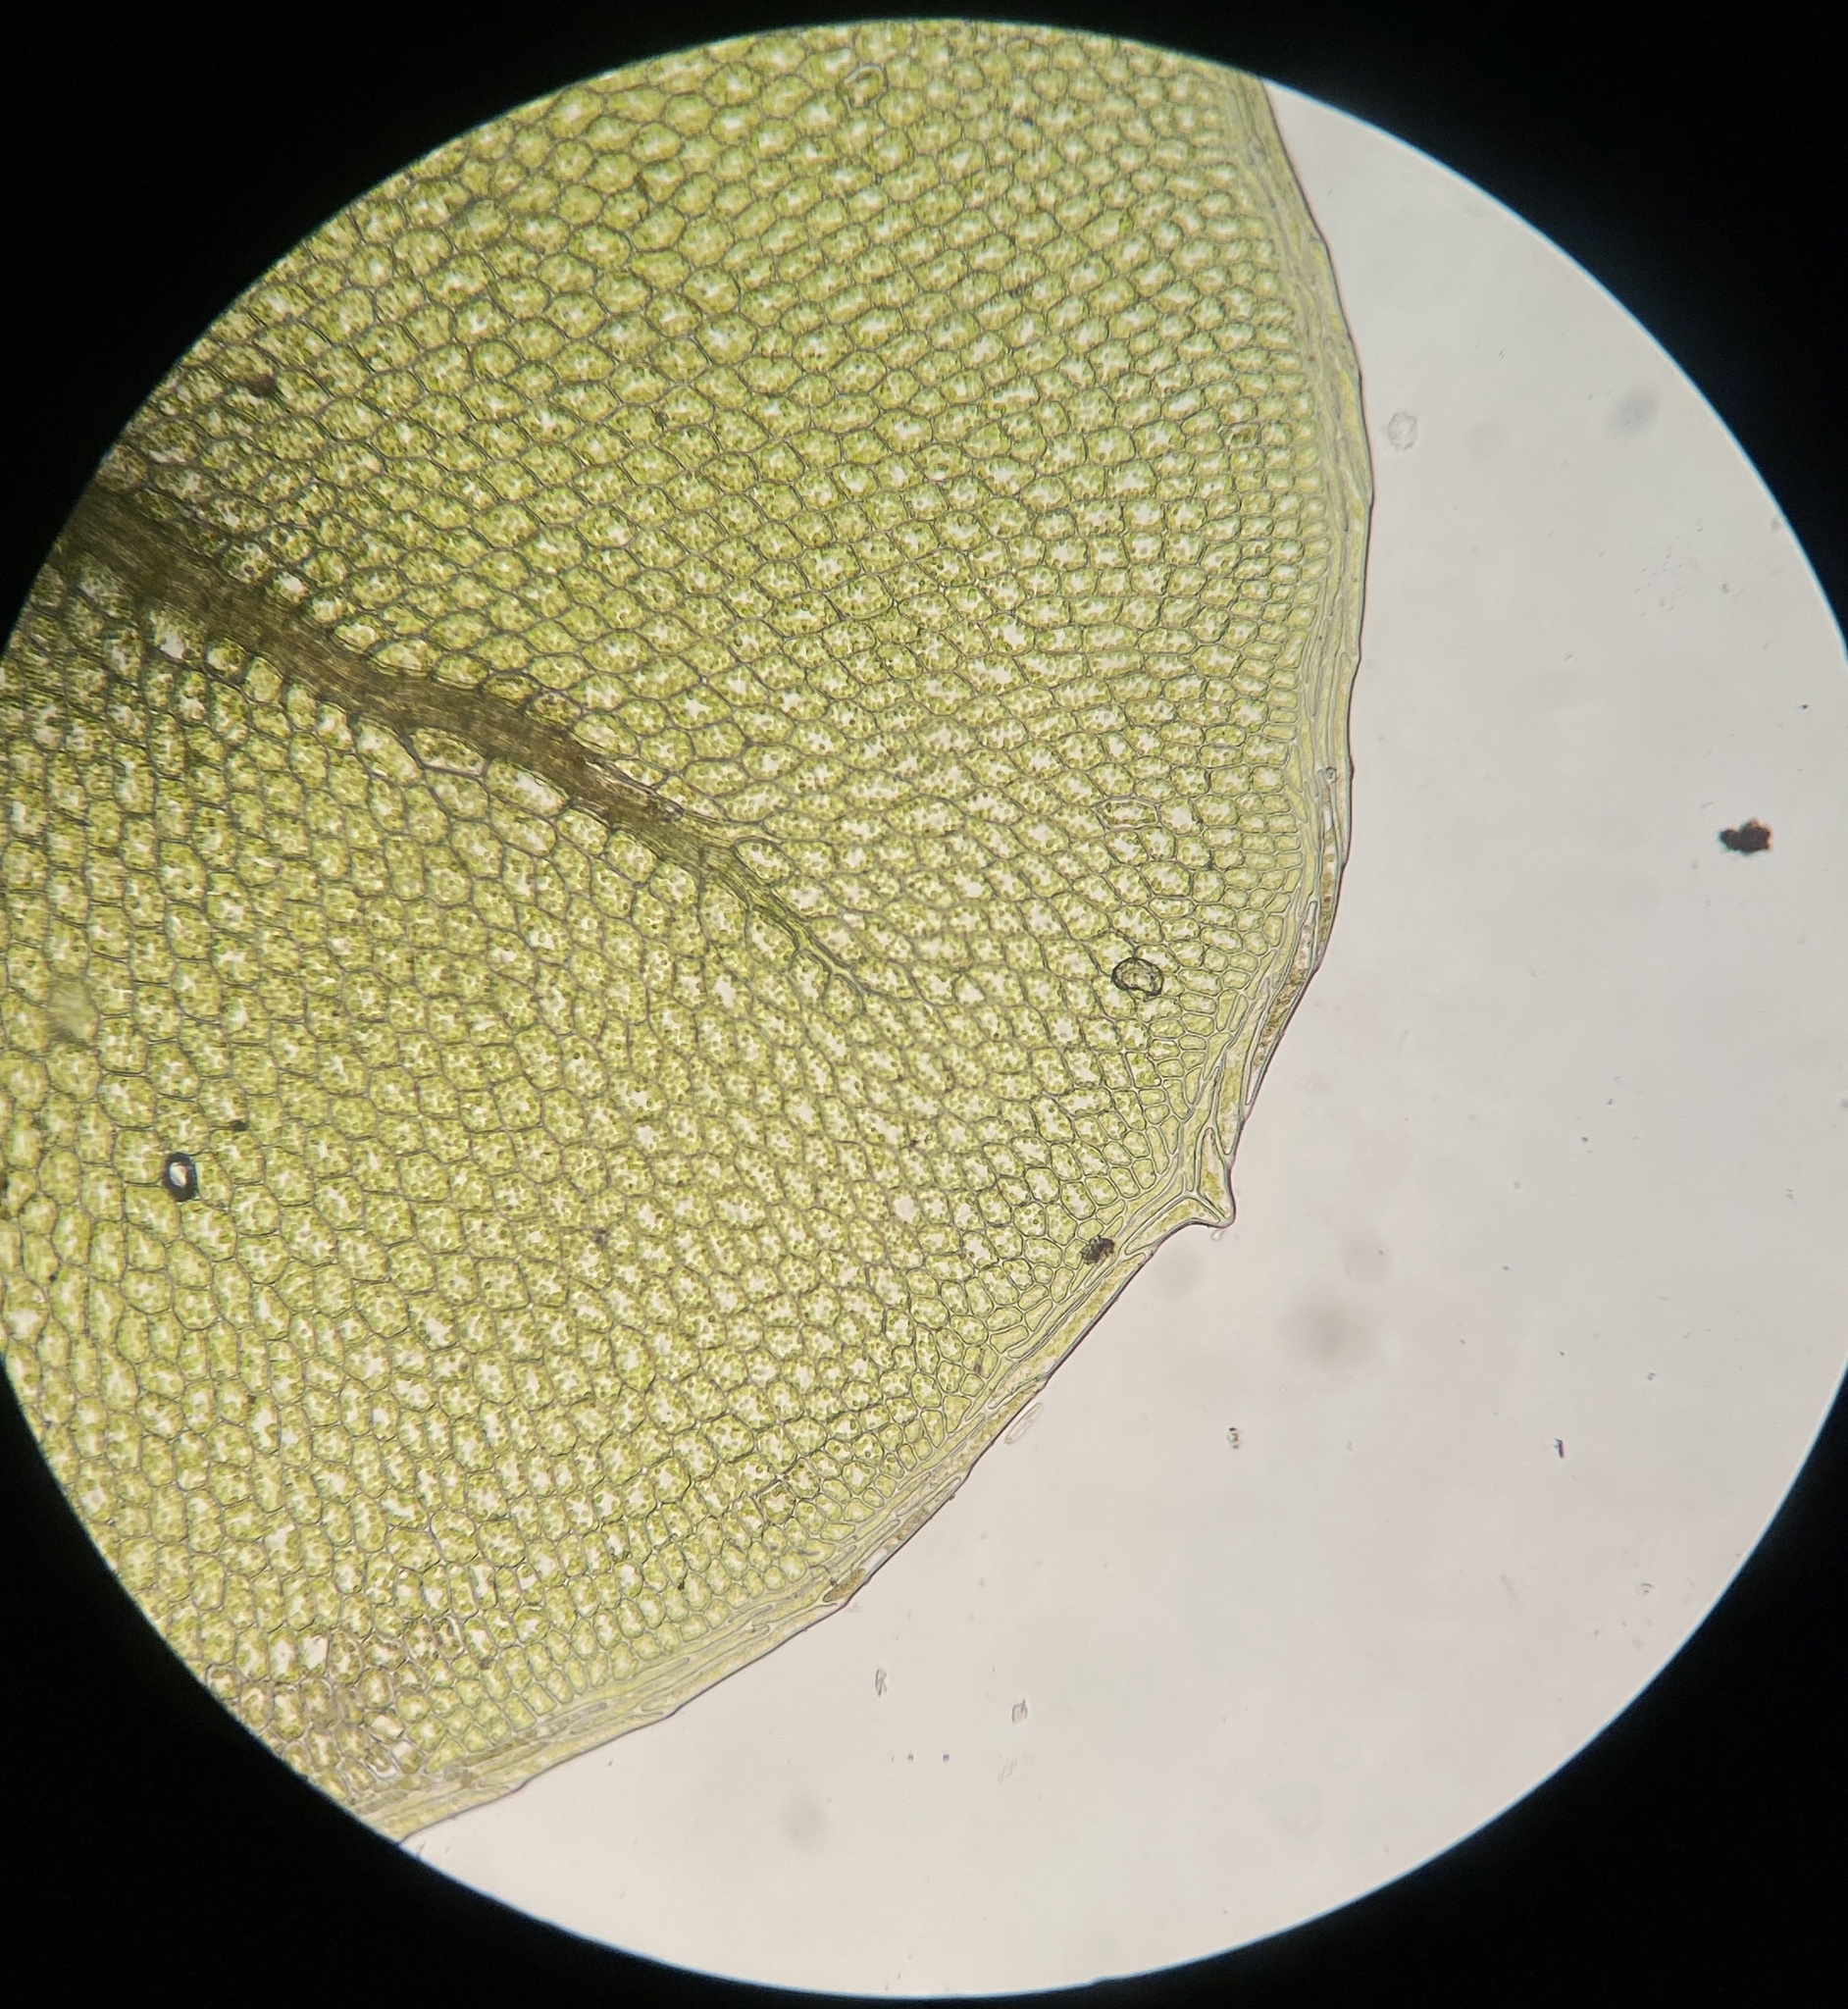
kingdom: Plantae
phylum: Bryophyta
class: Bryopsida
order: Bryales
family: Mniaceae
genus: Rhizomnium
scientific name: Rhizomnium punctatum
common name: Dotted leafy moss
